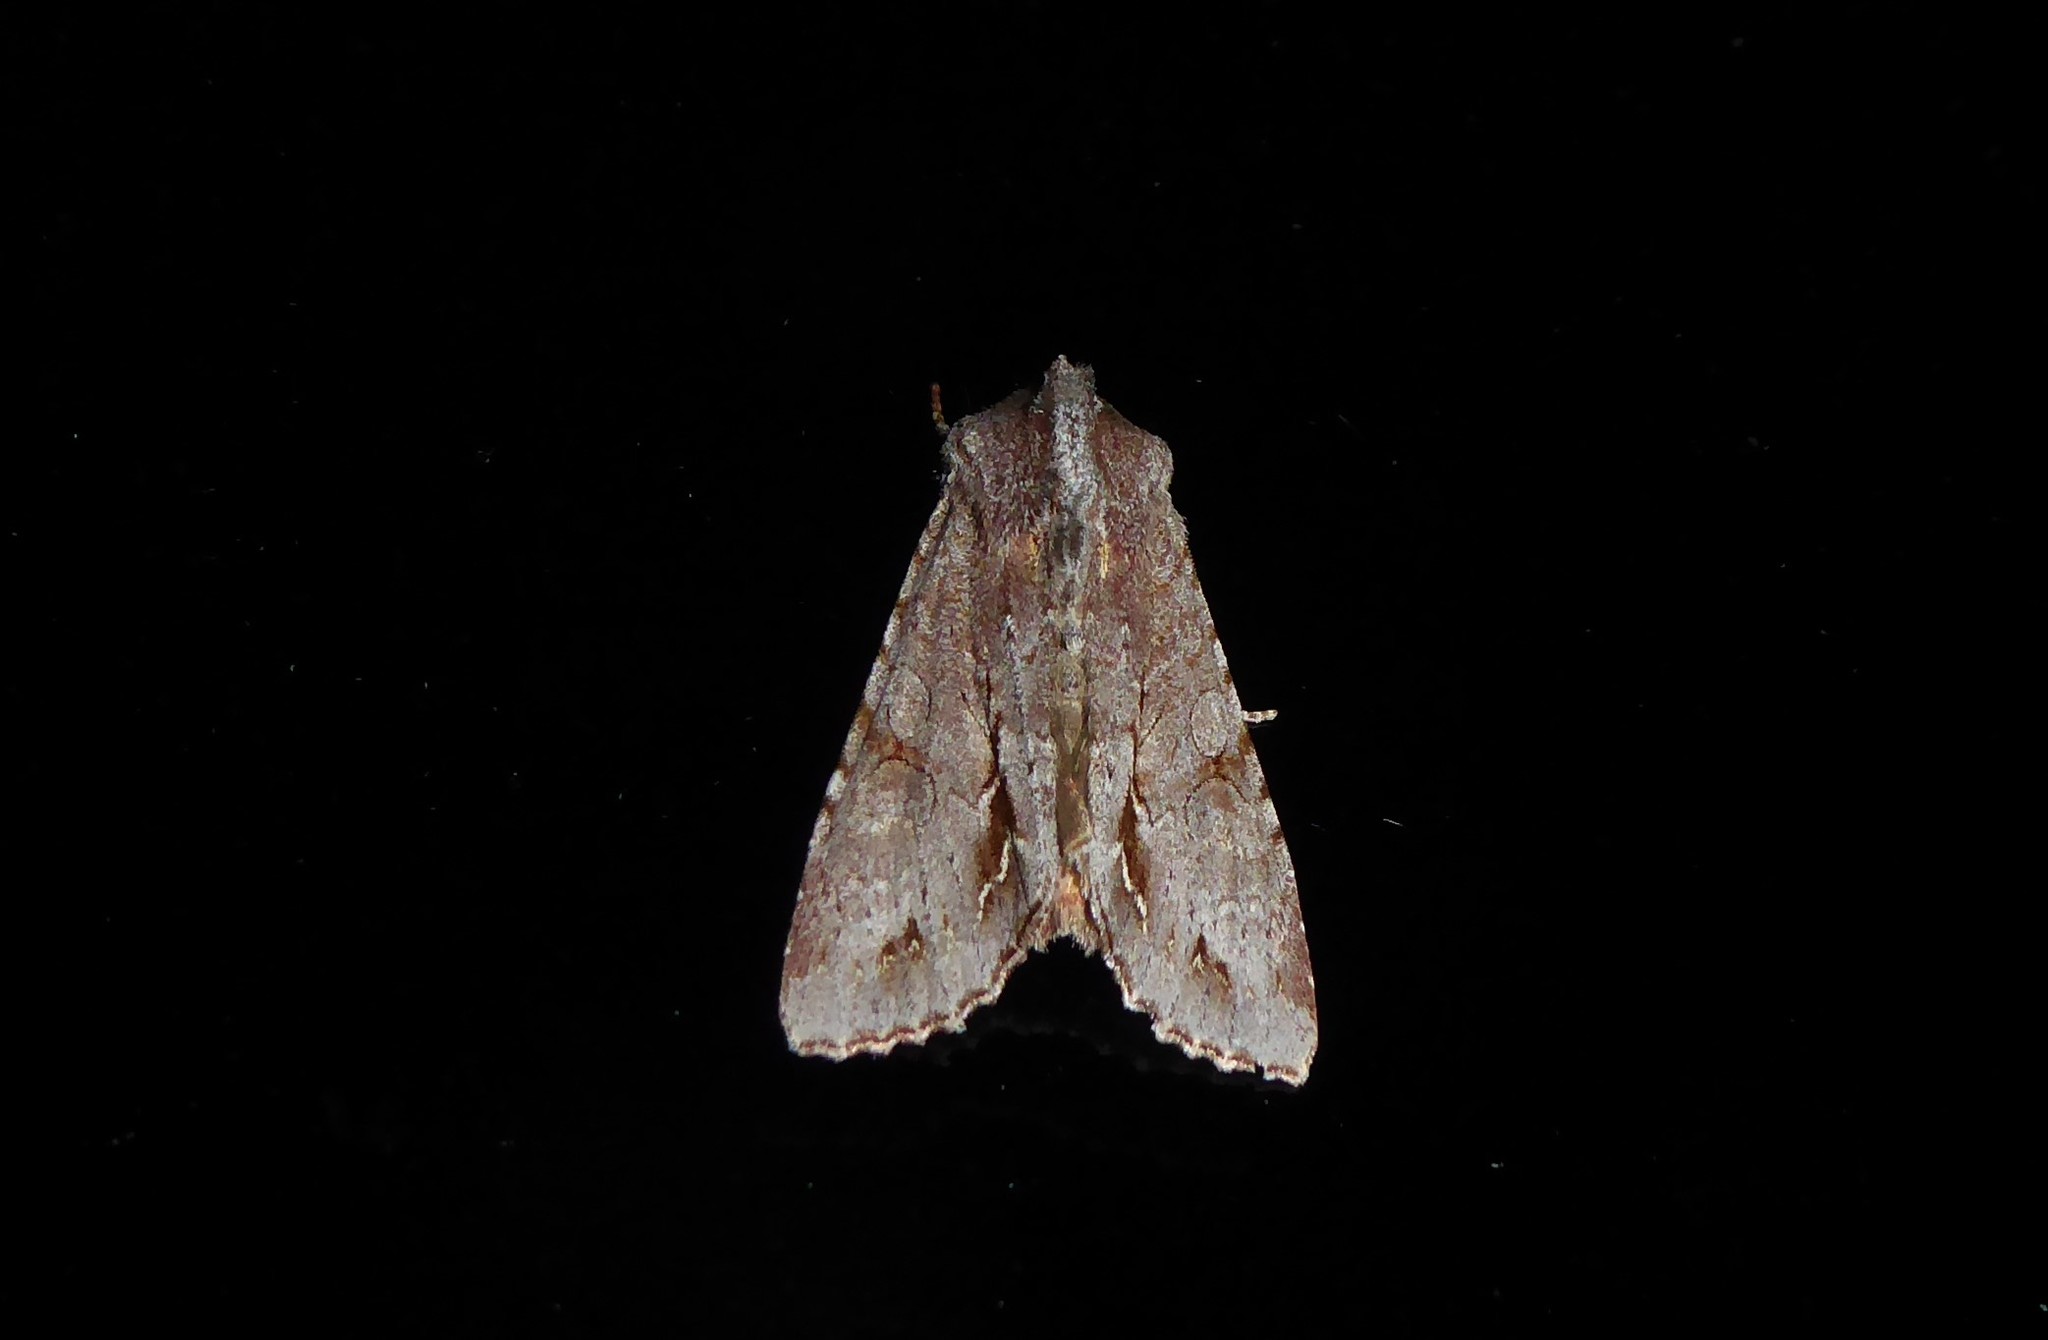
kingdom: Animalia
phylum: Arthropoda
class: Insecta
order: Lepidoptera
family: Noctuidae
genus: Ichneutica
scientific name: Ichneutica
